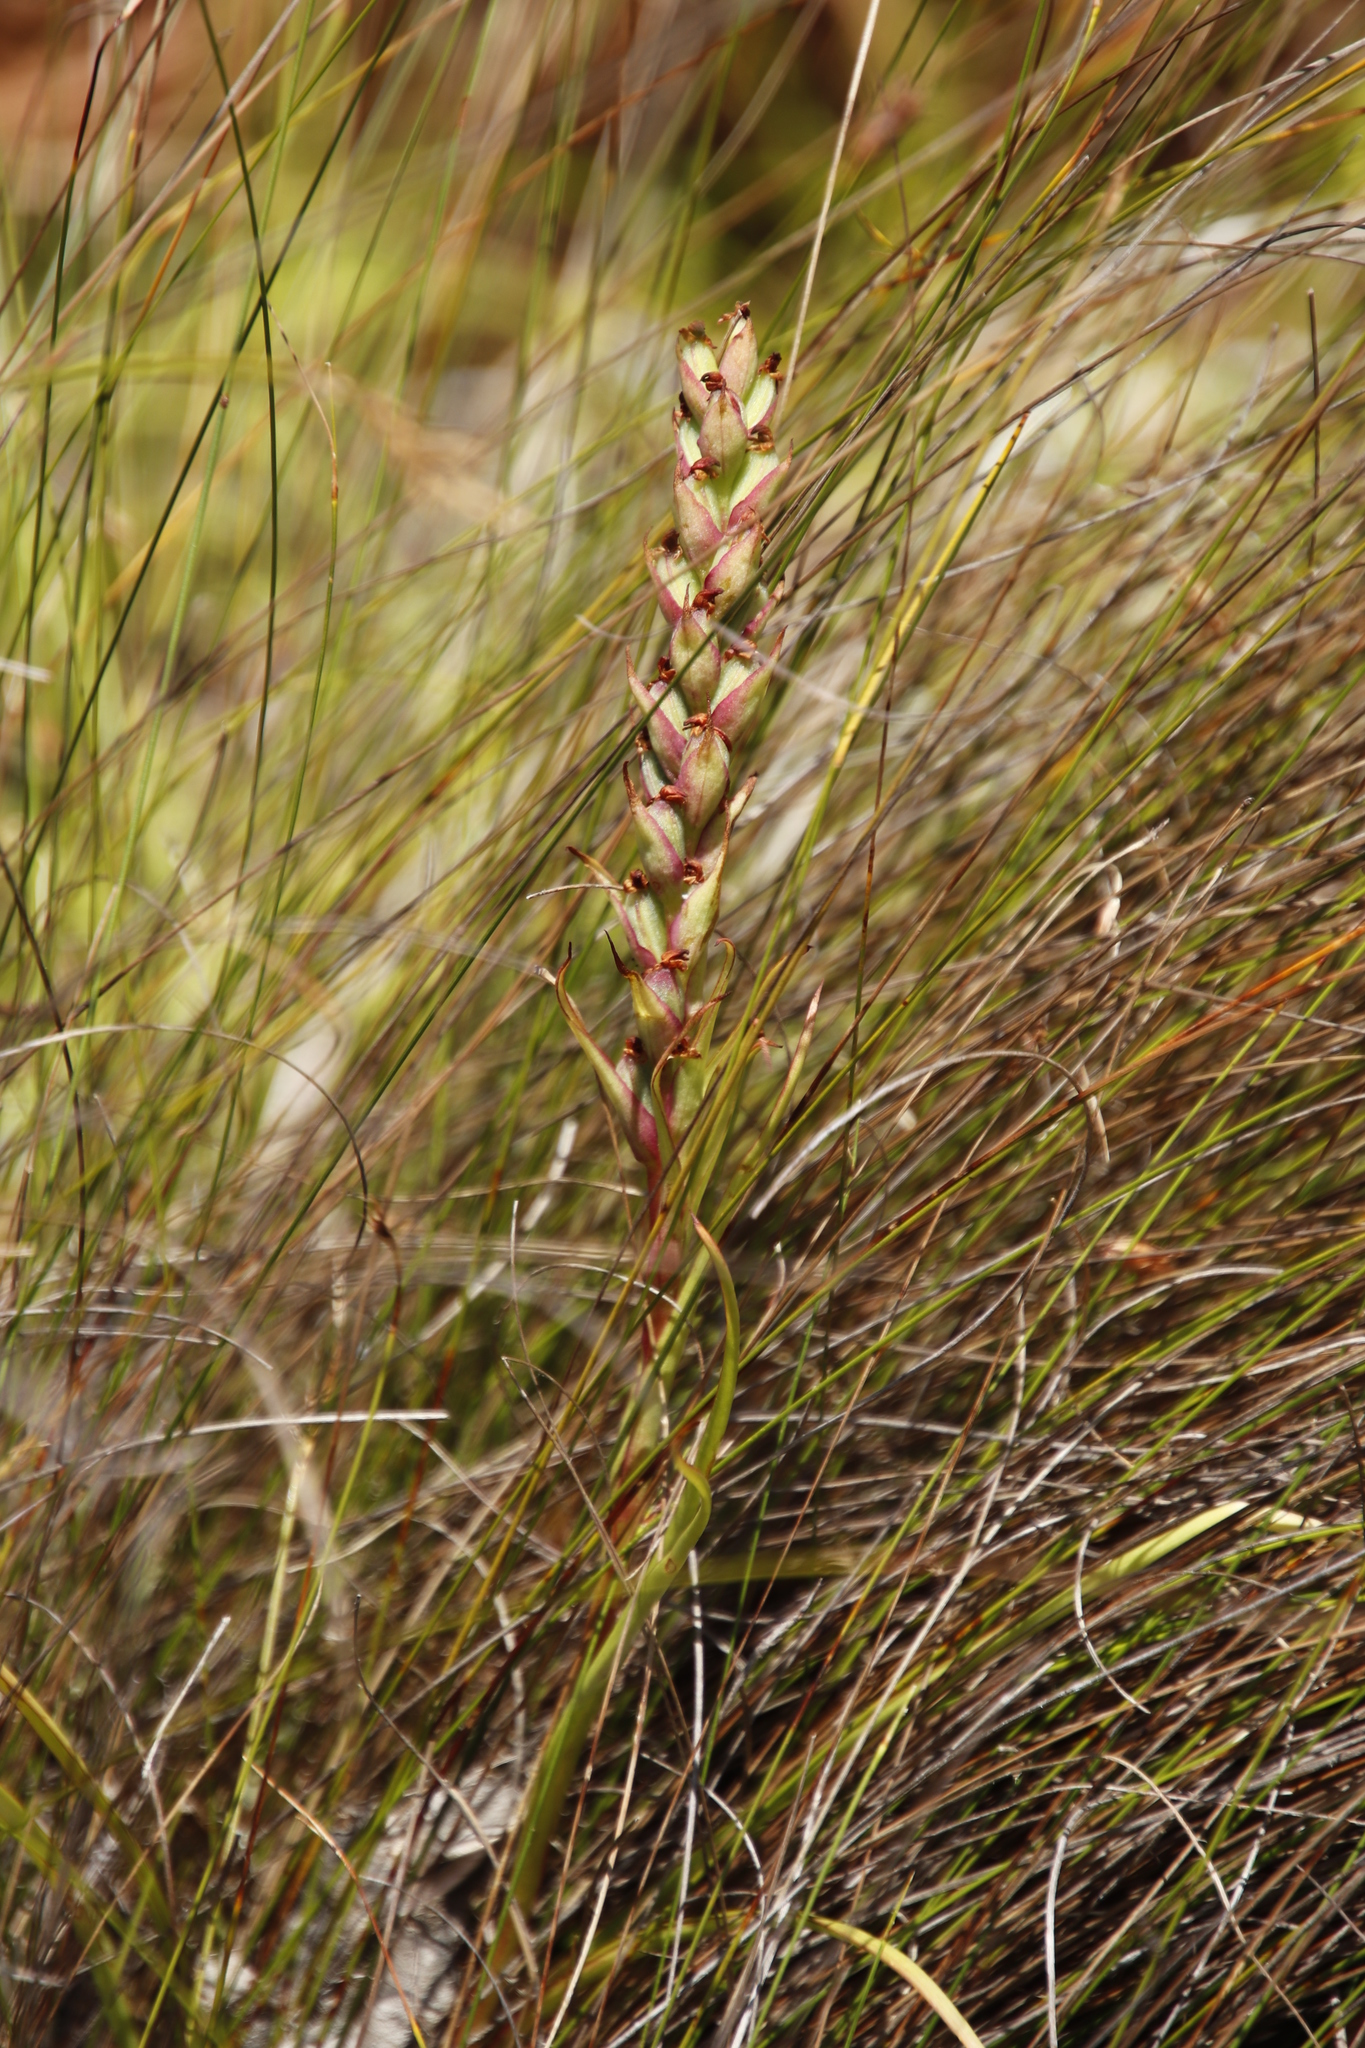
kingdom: Plantae
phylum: Tracheophyta
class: Liliopsida
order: Asparagales
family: Orchidaceae
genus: Disa
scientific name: Disa bracteata
